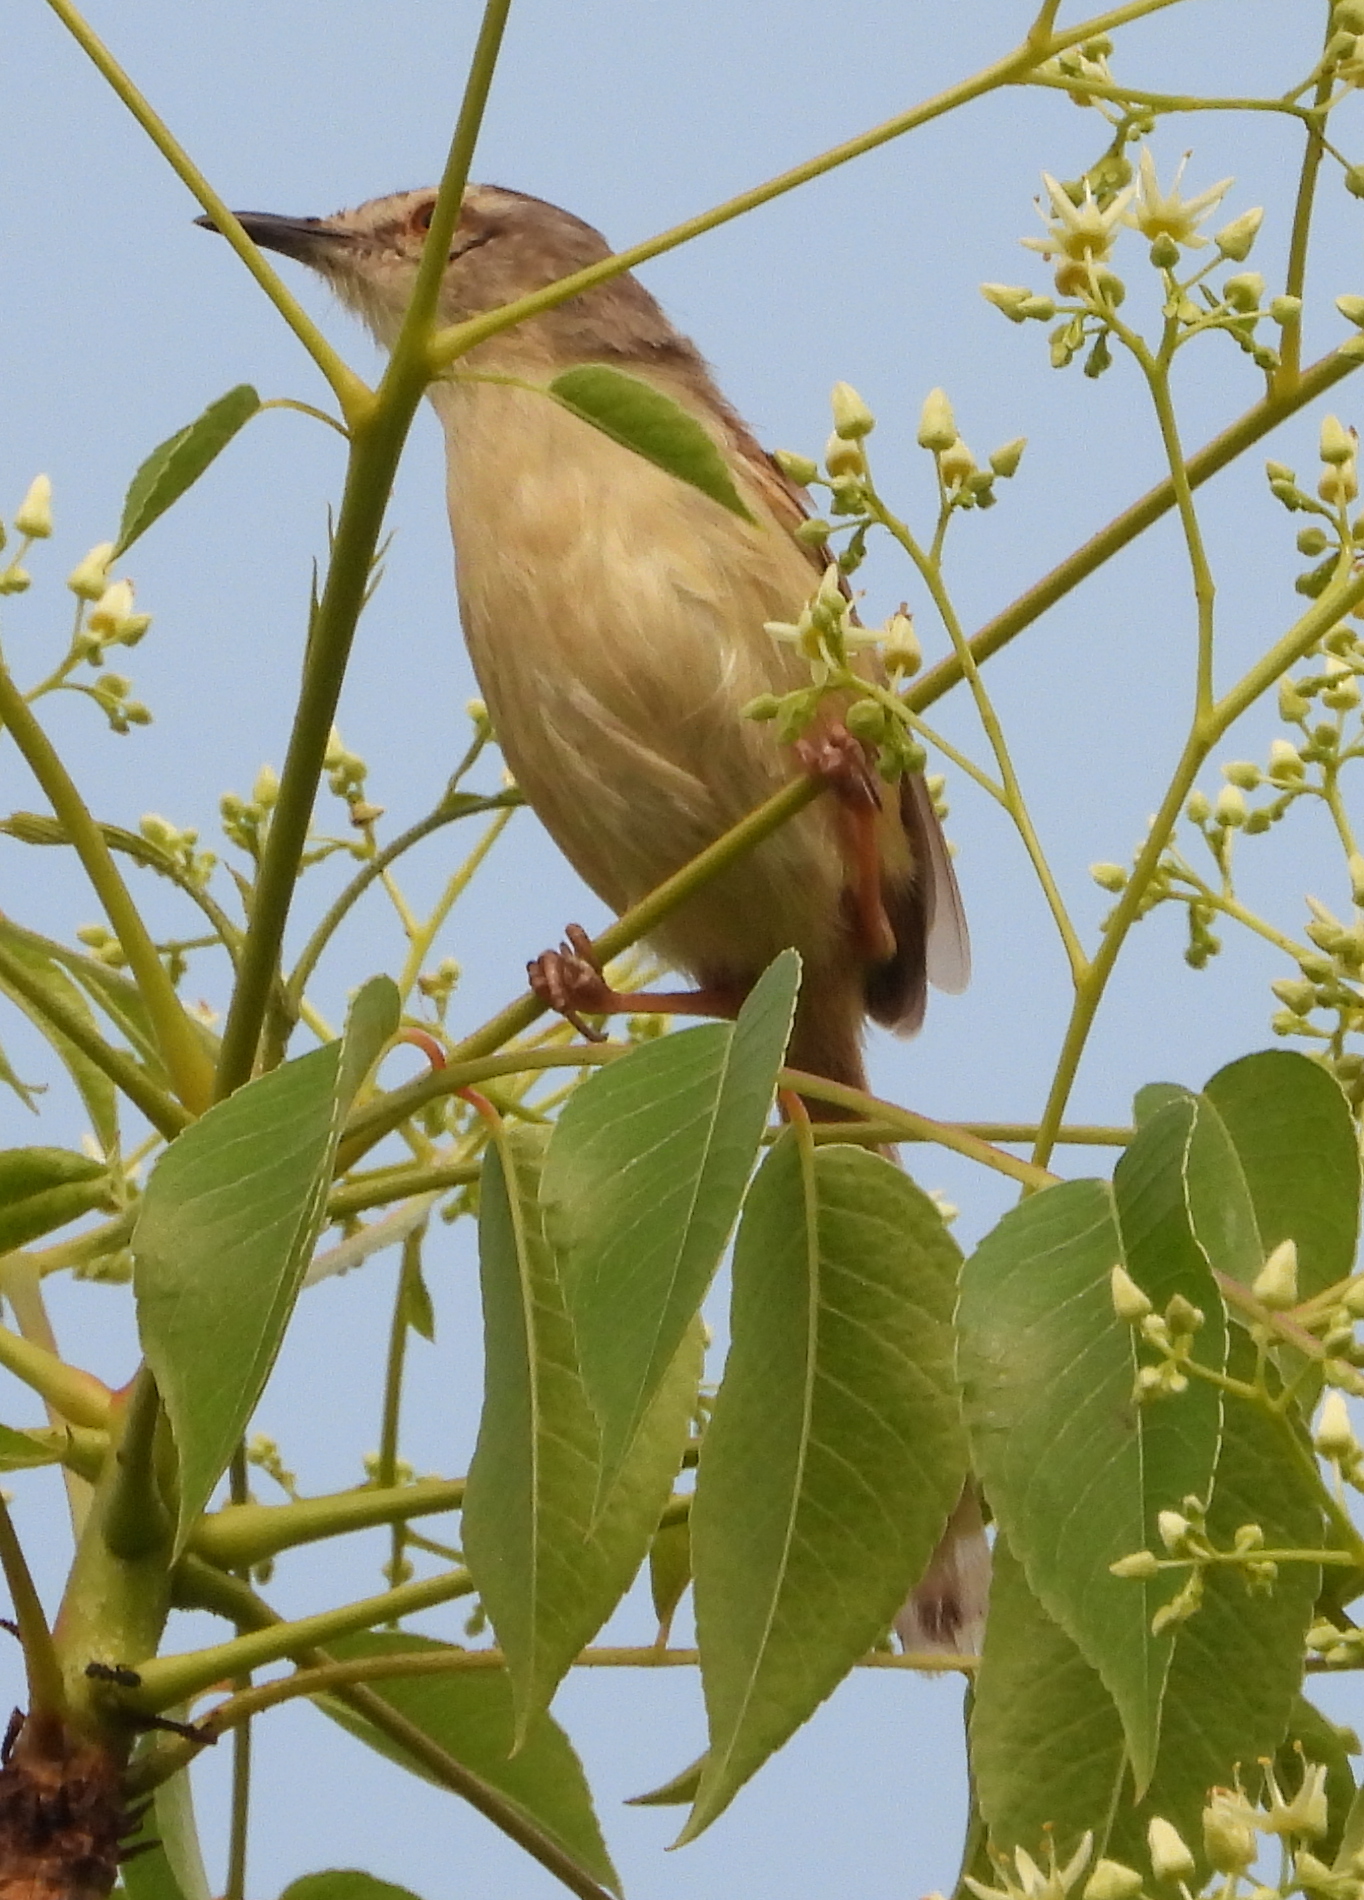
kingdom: Animalia
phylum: Chordata
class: Aves
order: Passeriformes
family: Cisticolidae
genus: Prinia
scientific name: Prinia subflava
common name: Tawny-flanked prinia
